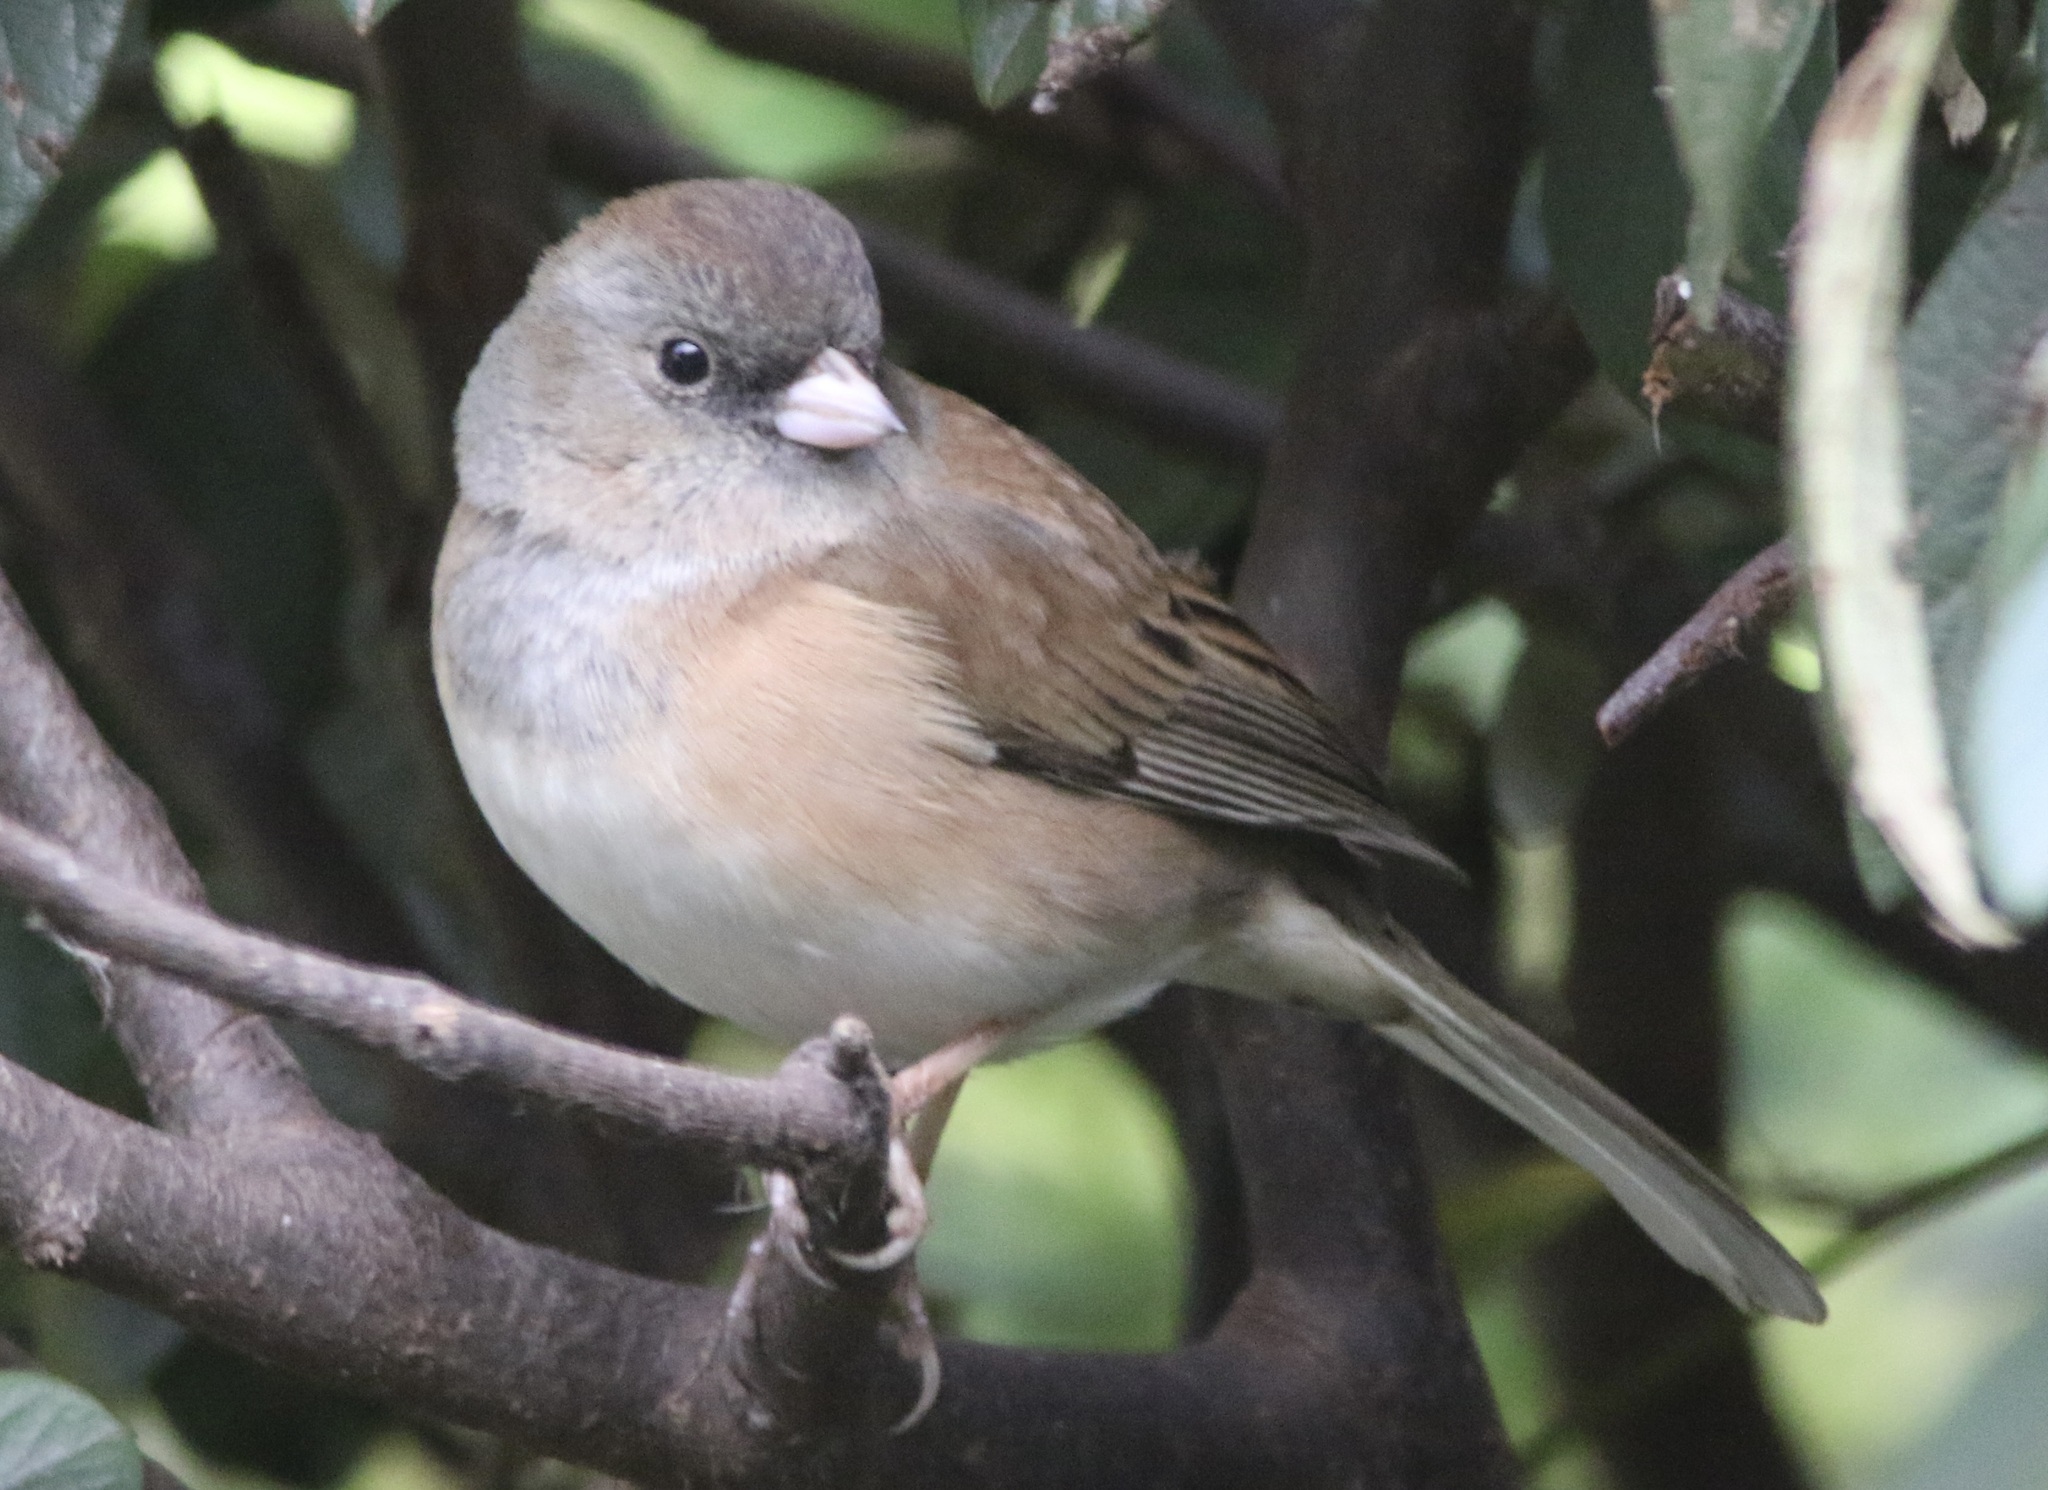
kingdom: Animalia
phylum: Chordata
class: Aves
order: Passeriformes
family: Passerellidae
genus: Junco
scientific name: Junco hyemalis
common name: Dark-eyed junco
